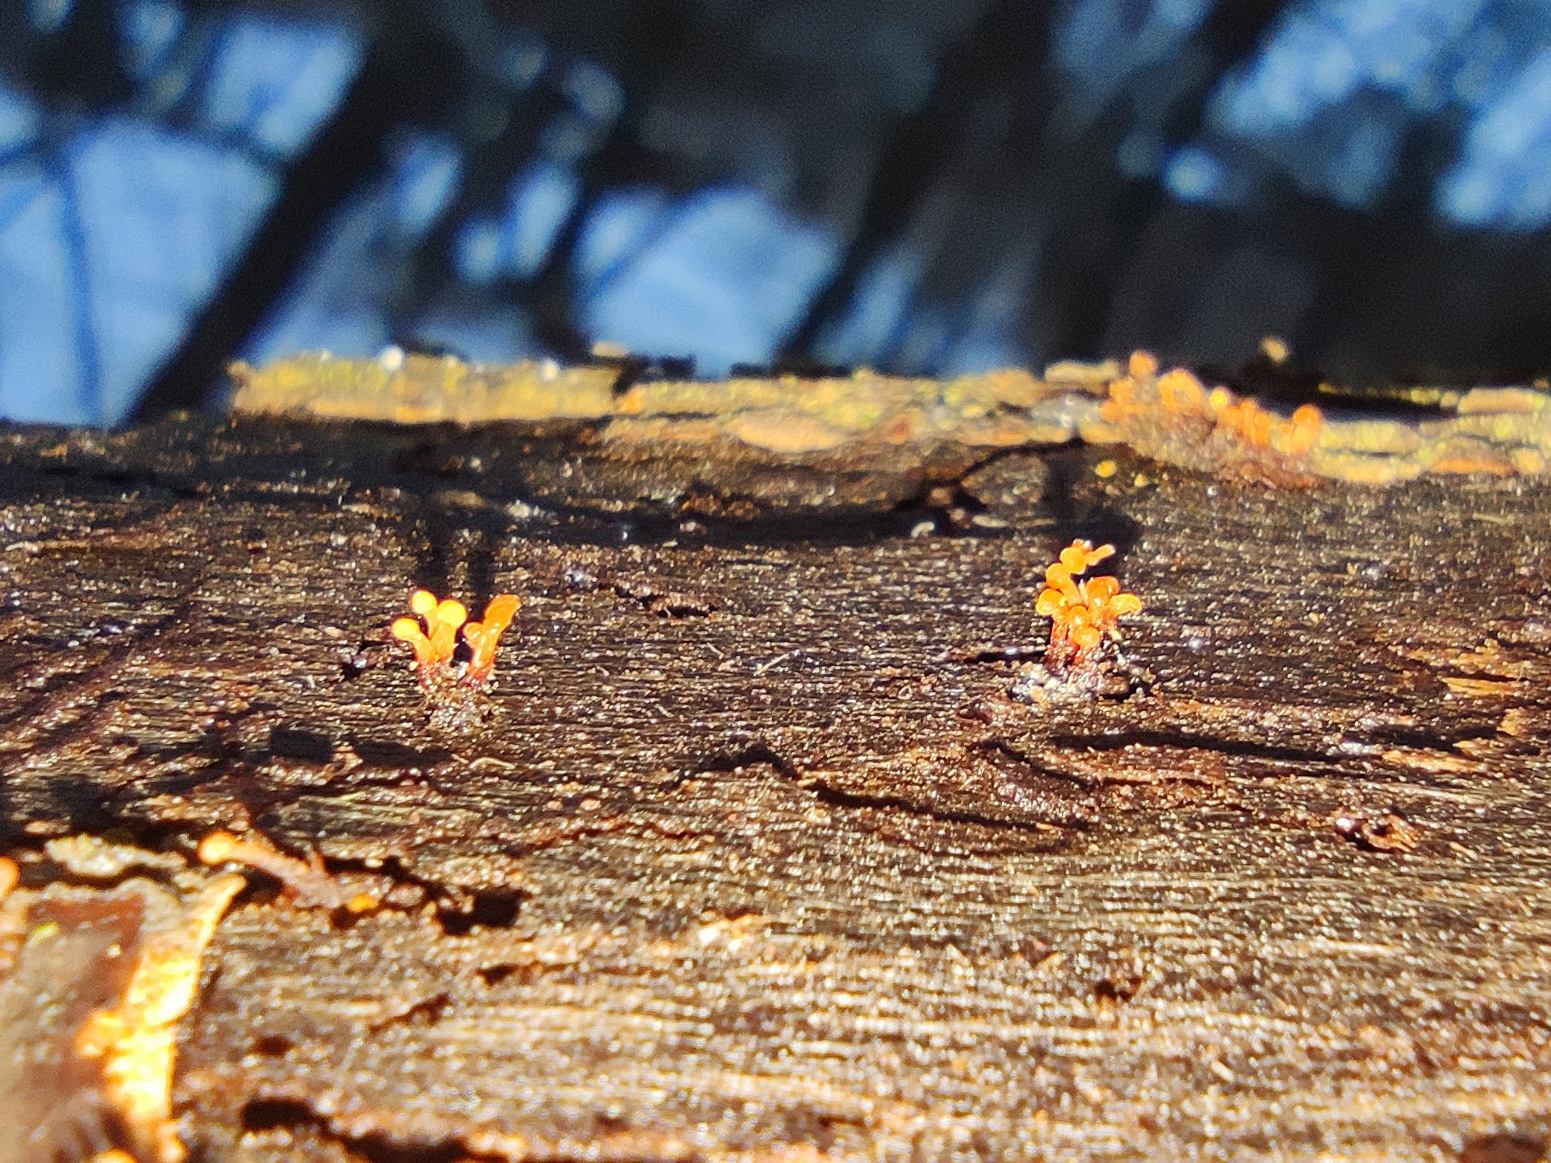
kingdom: Fungi
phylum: Basidiomycota
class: Agaricomycetes
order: Agaricales
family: Physalacriaceae
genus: Flammulina
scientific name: Flammulina velutipes
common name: Velvet shank
